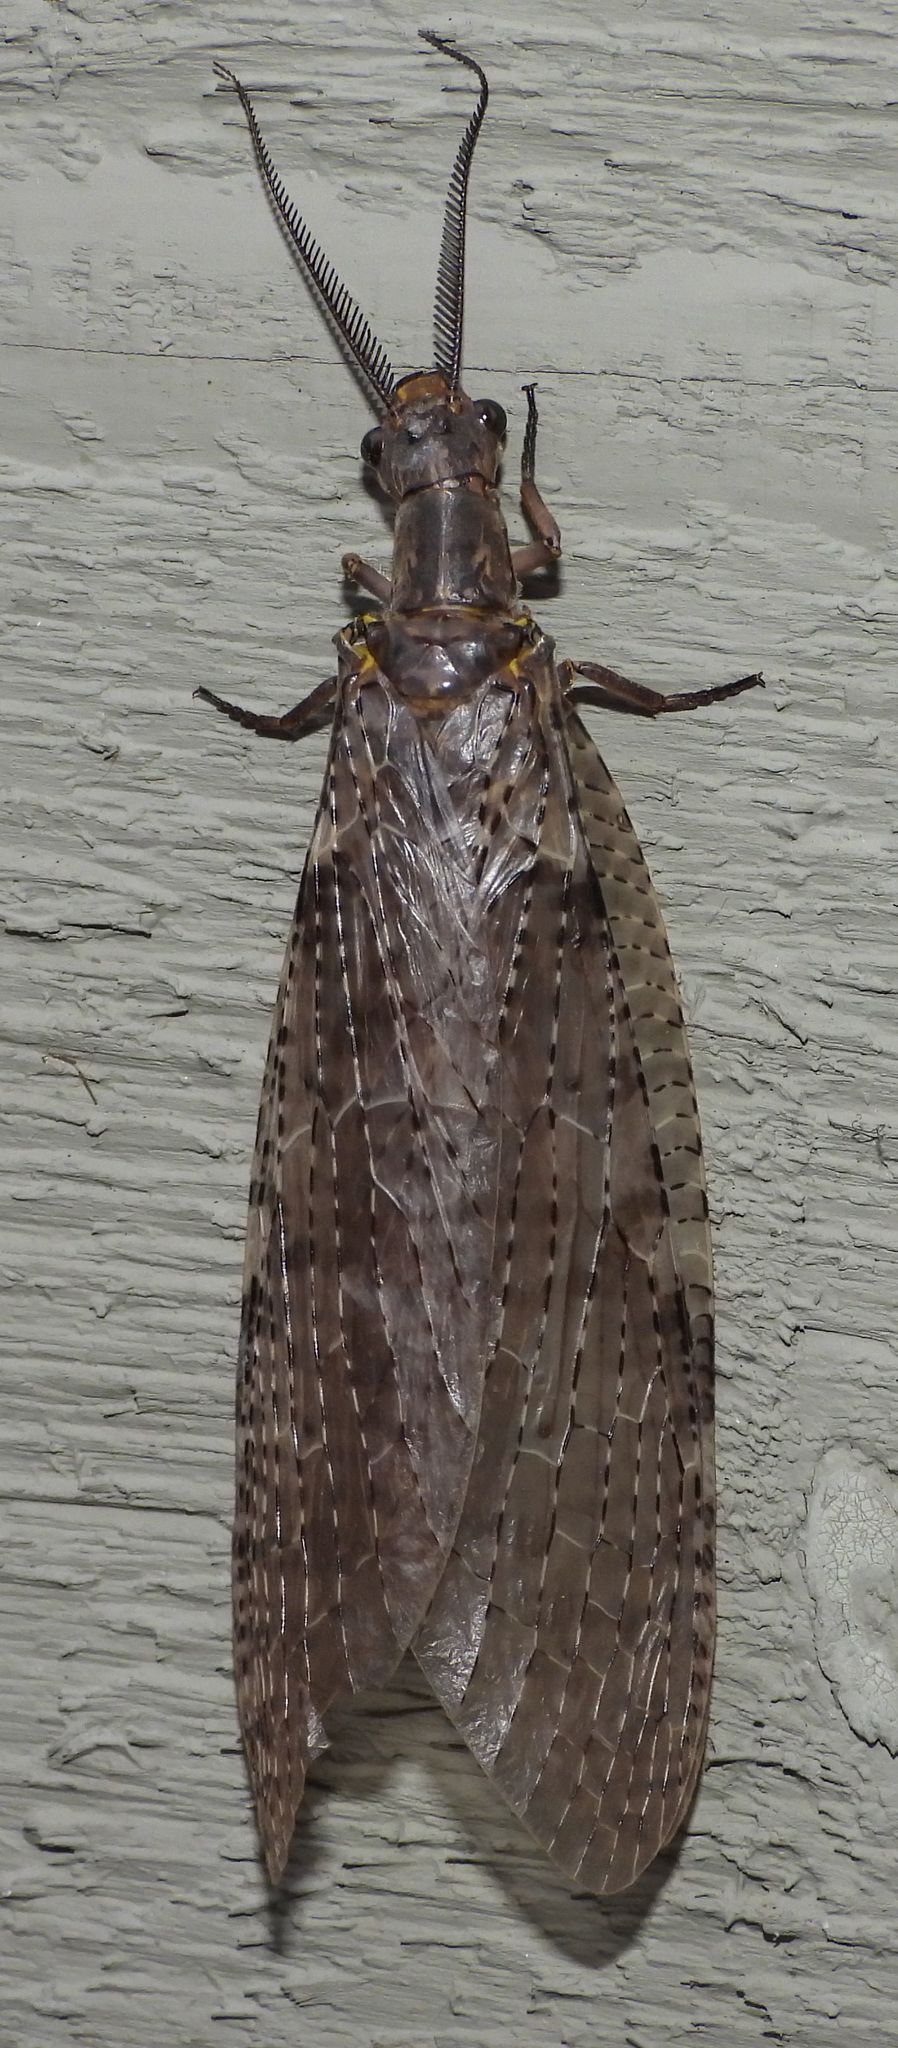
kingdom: Animalia
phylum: Arthropoda
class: Insecta
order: Megaloptera
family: Corydalidae
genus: Chauliodes
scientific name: Chauliodes pectinicornis
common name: Summer fishfly
